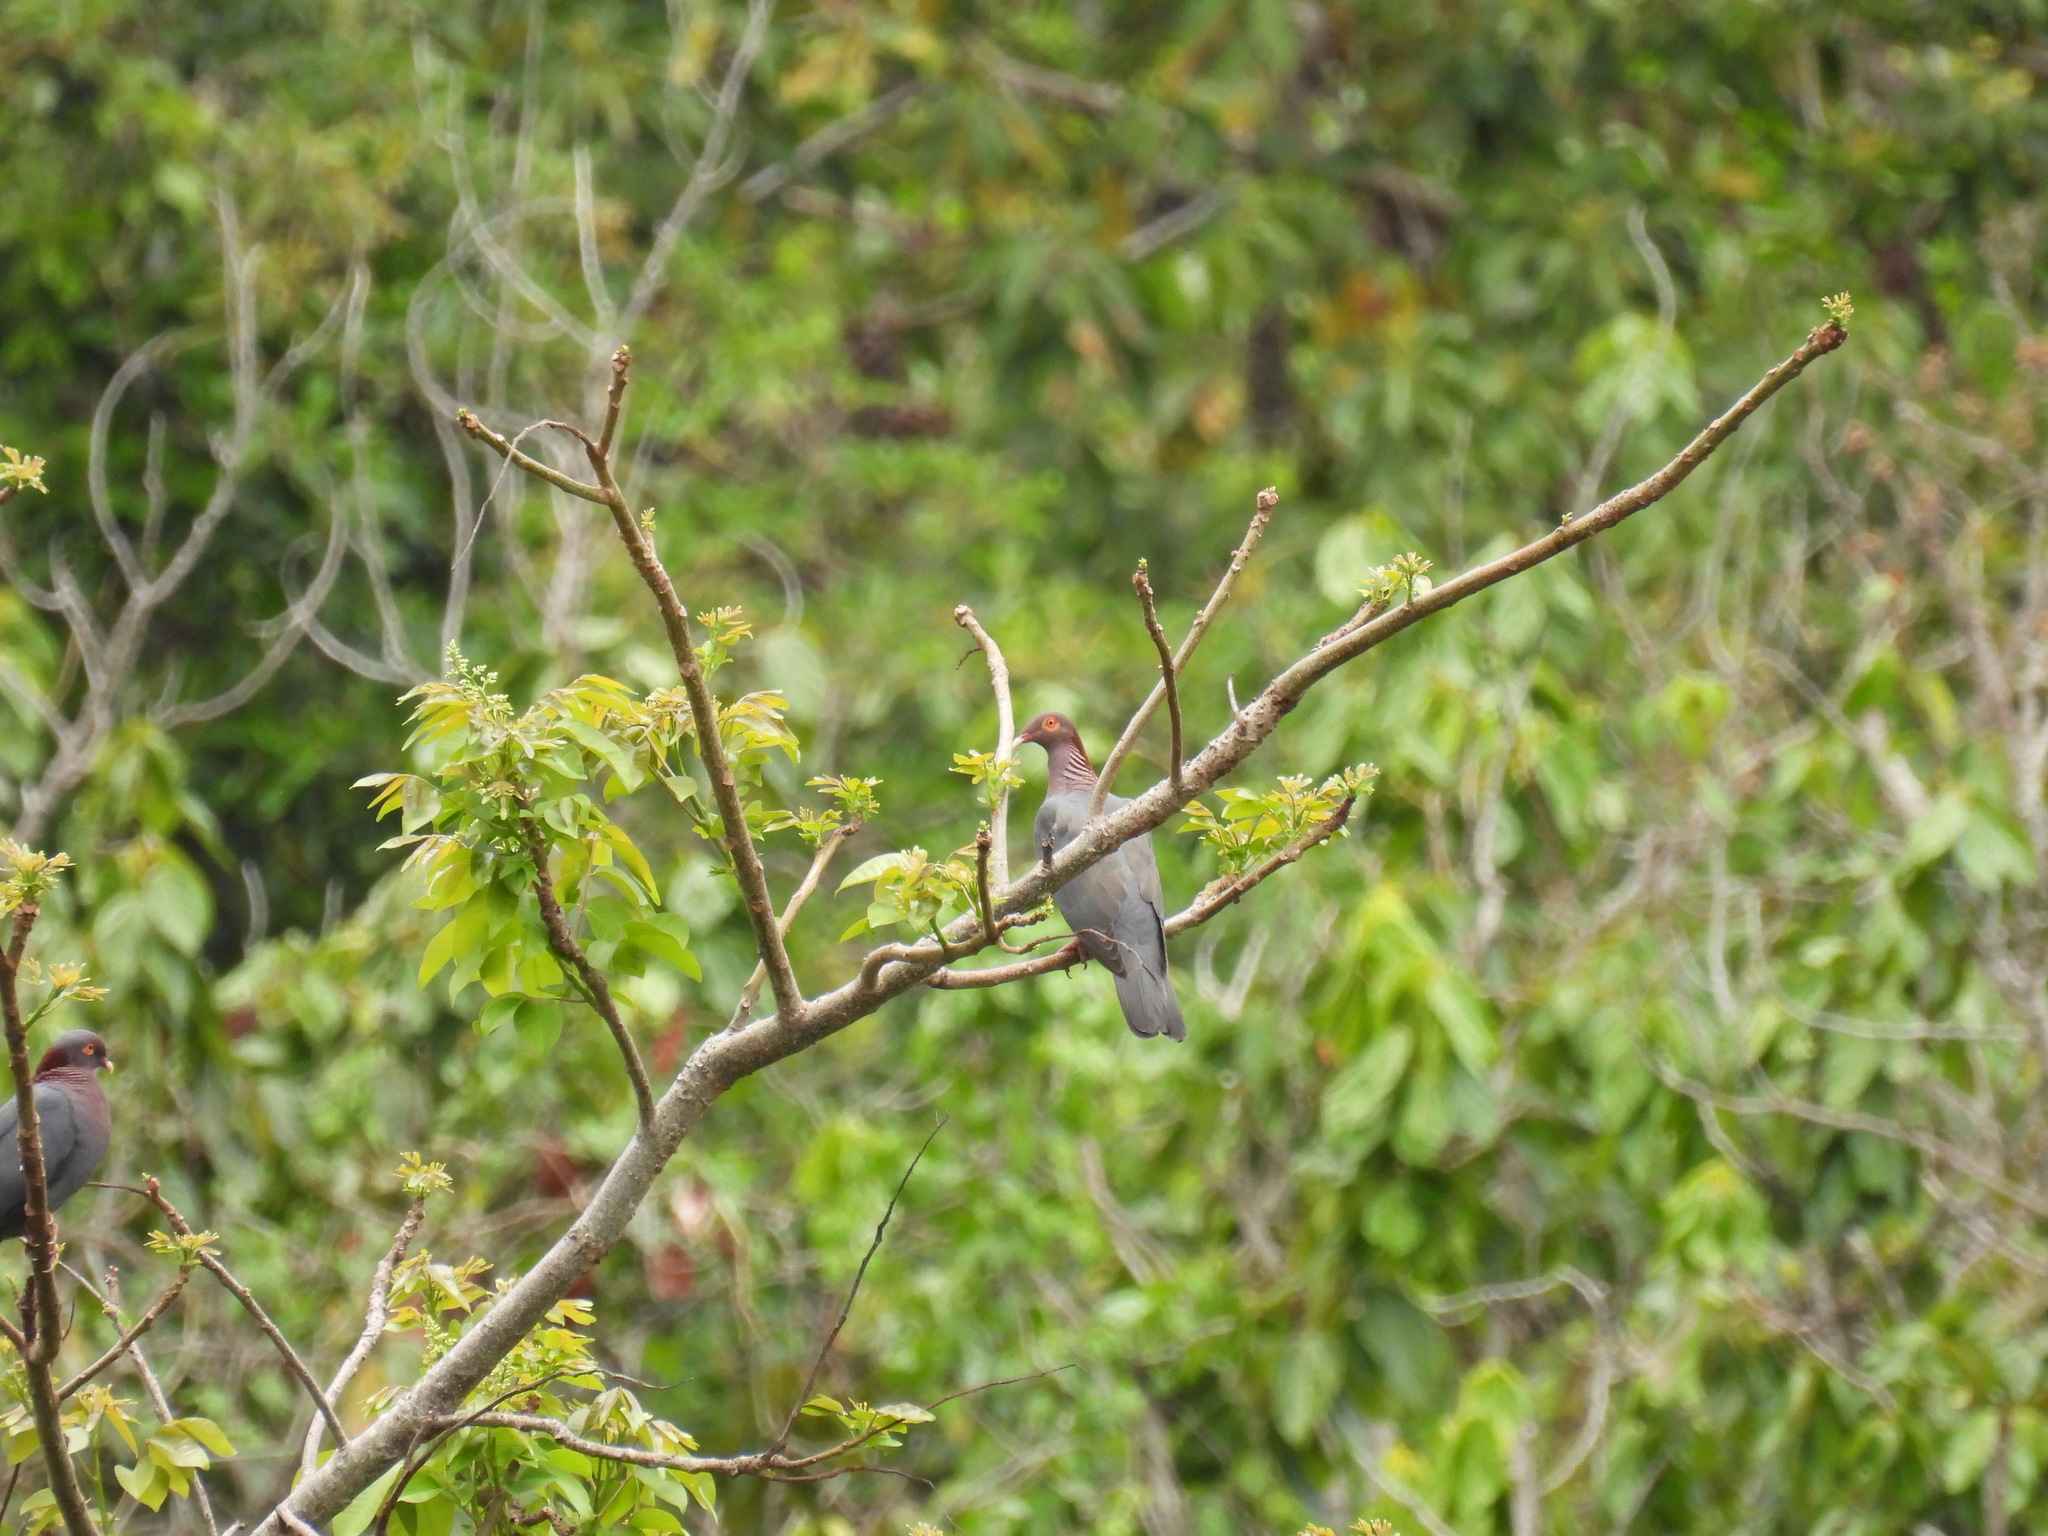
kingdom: Animalia
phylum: Chordata
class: Aves
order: Columbiformes
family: Columbidae
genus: Patagioenas
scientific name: Patagioenas squamosa
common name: Scaly-naped pigeon
